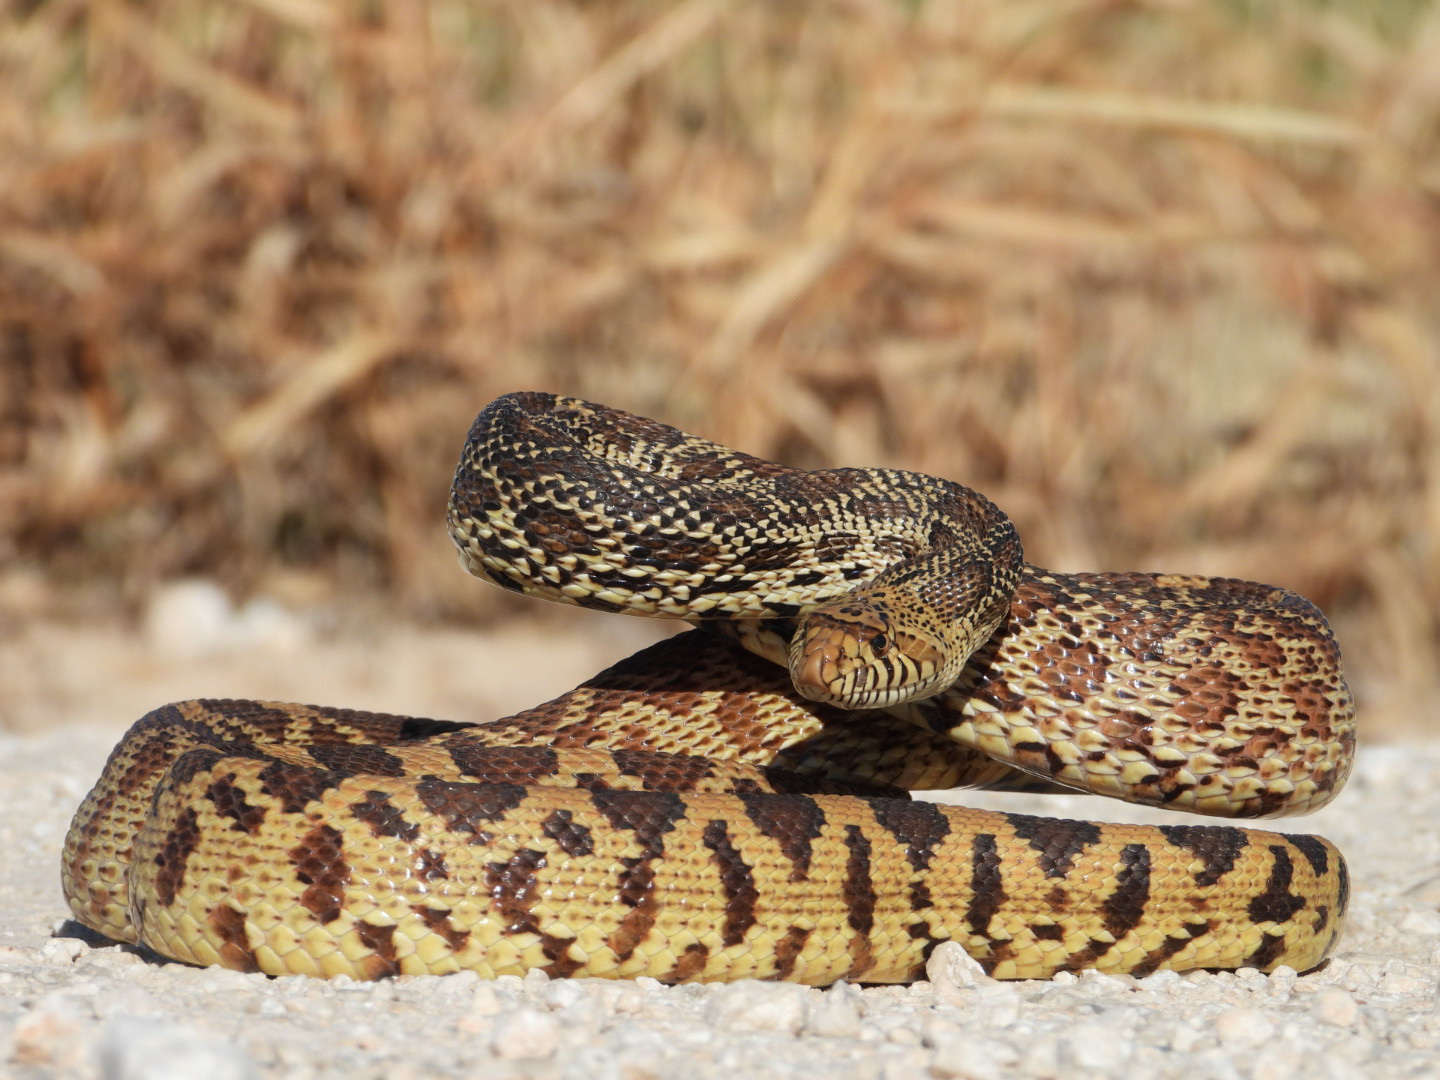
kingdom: Animalia
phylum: Chordata
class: Squamata
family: Colubridae
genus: Pituophis
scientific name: Pituophis catenifer
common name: Gopher snake
